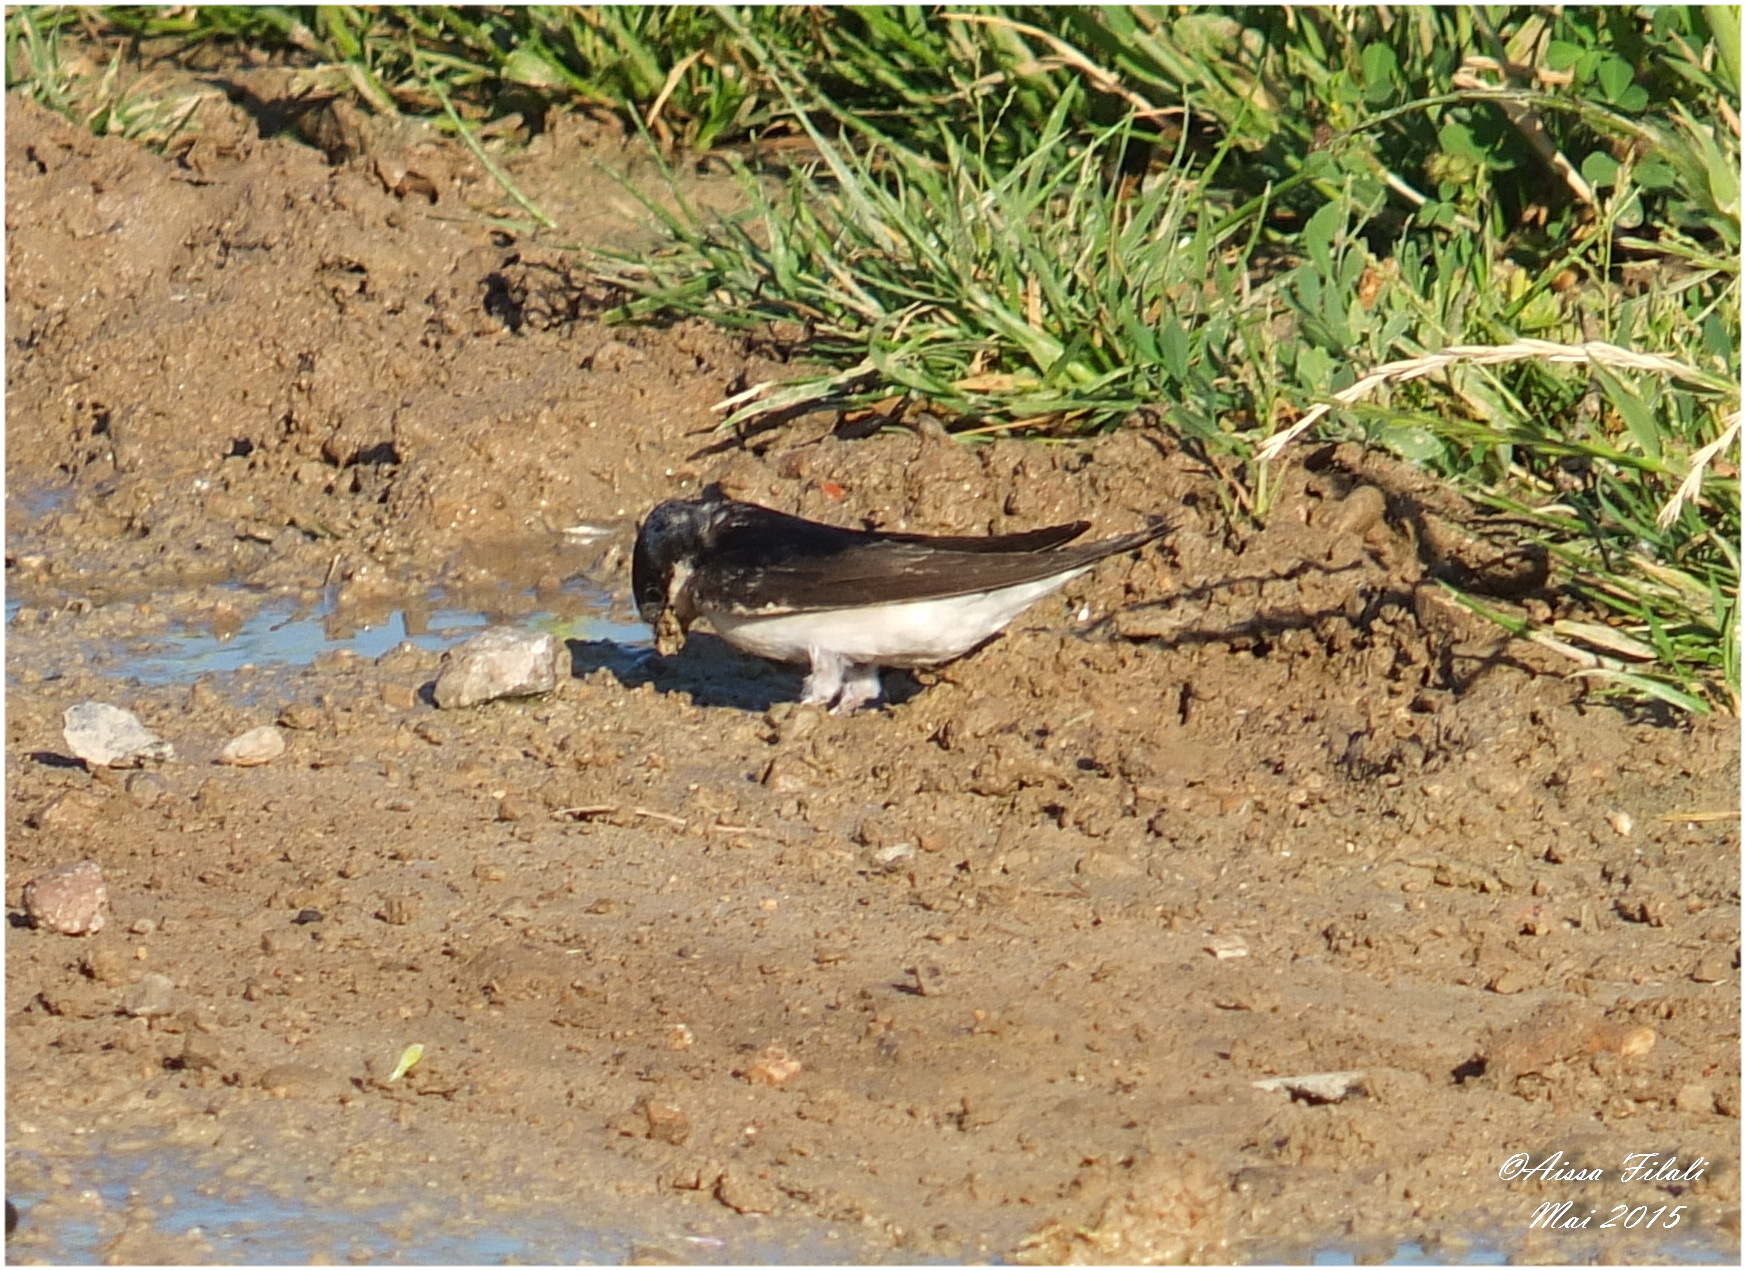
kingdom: Animalia
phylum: Chordata
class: Aves
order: Passeriformes
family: Hirundinidae
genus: Delichon
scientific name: Delichon urbicum
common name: Common house martin
